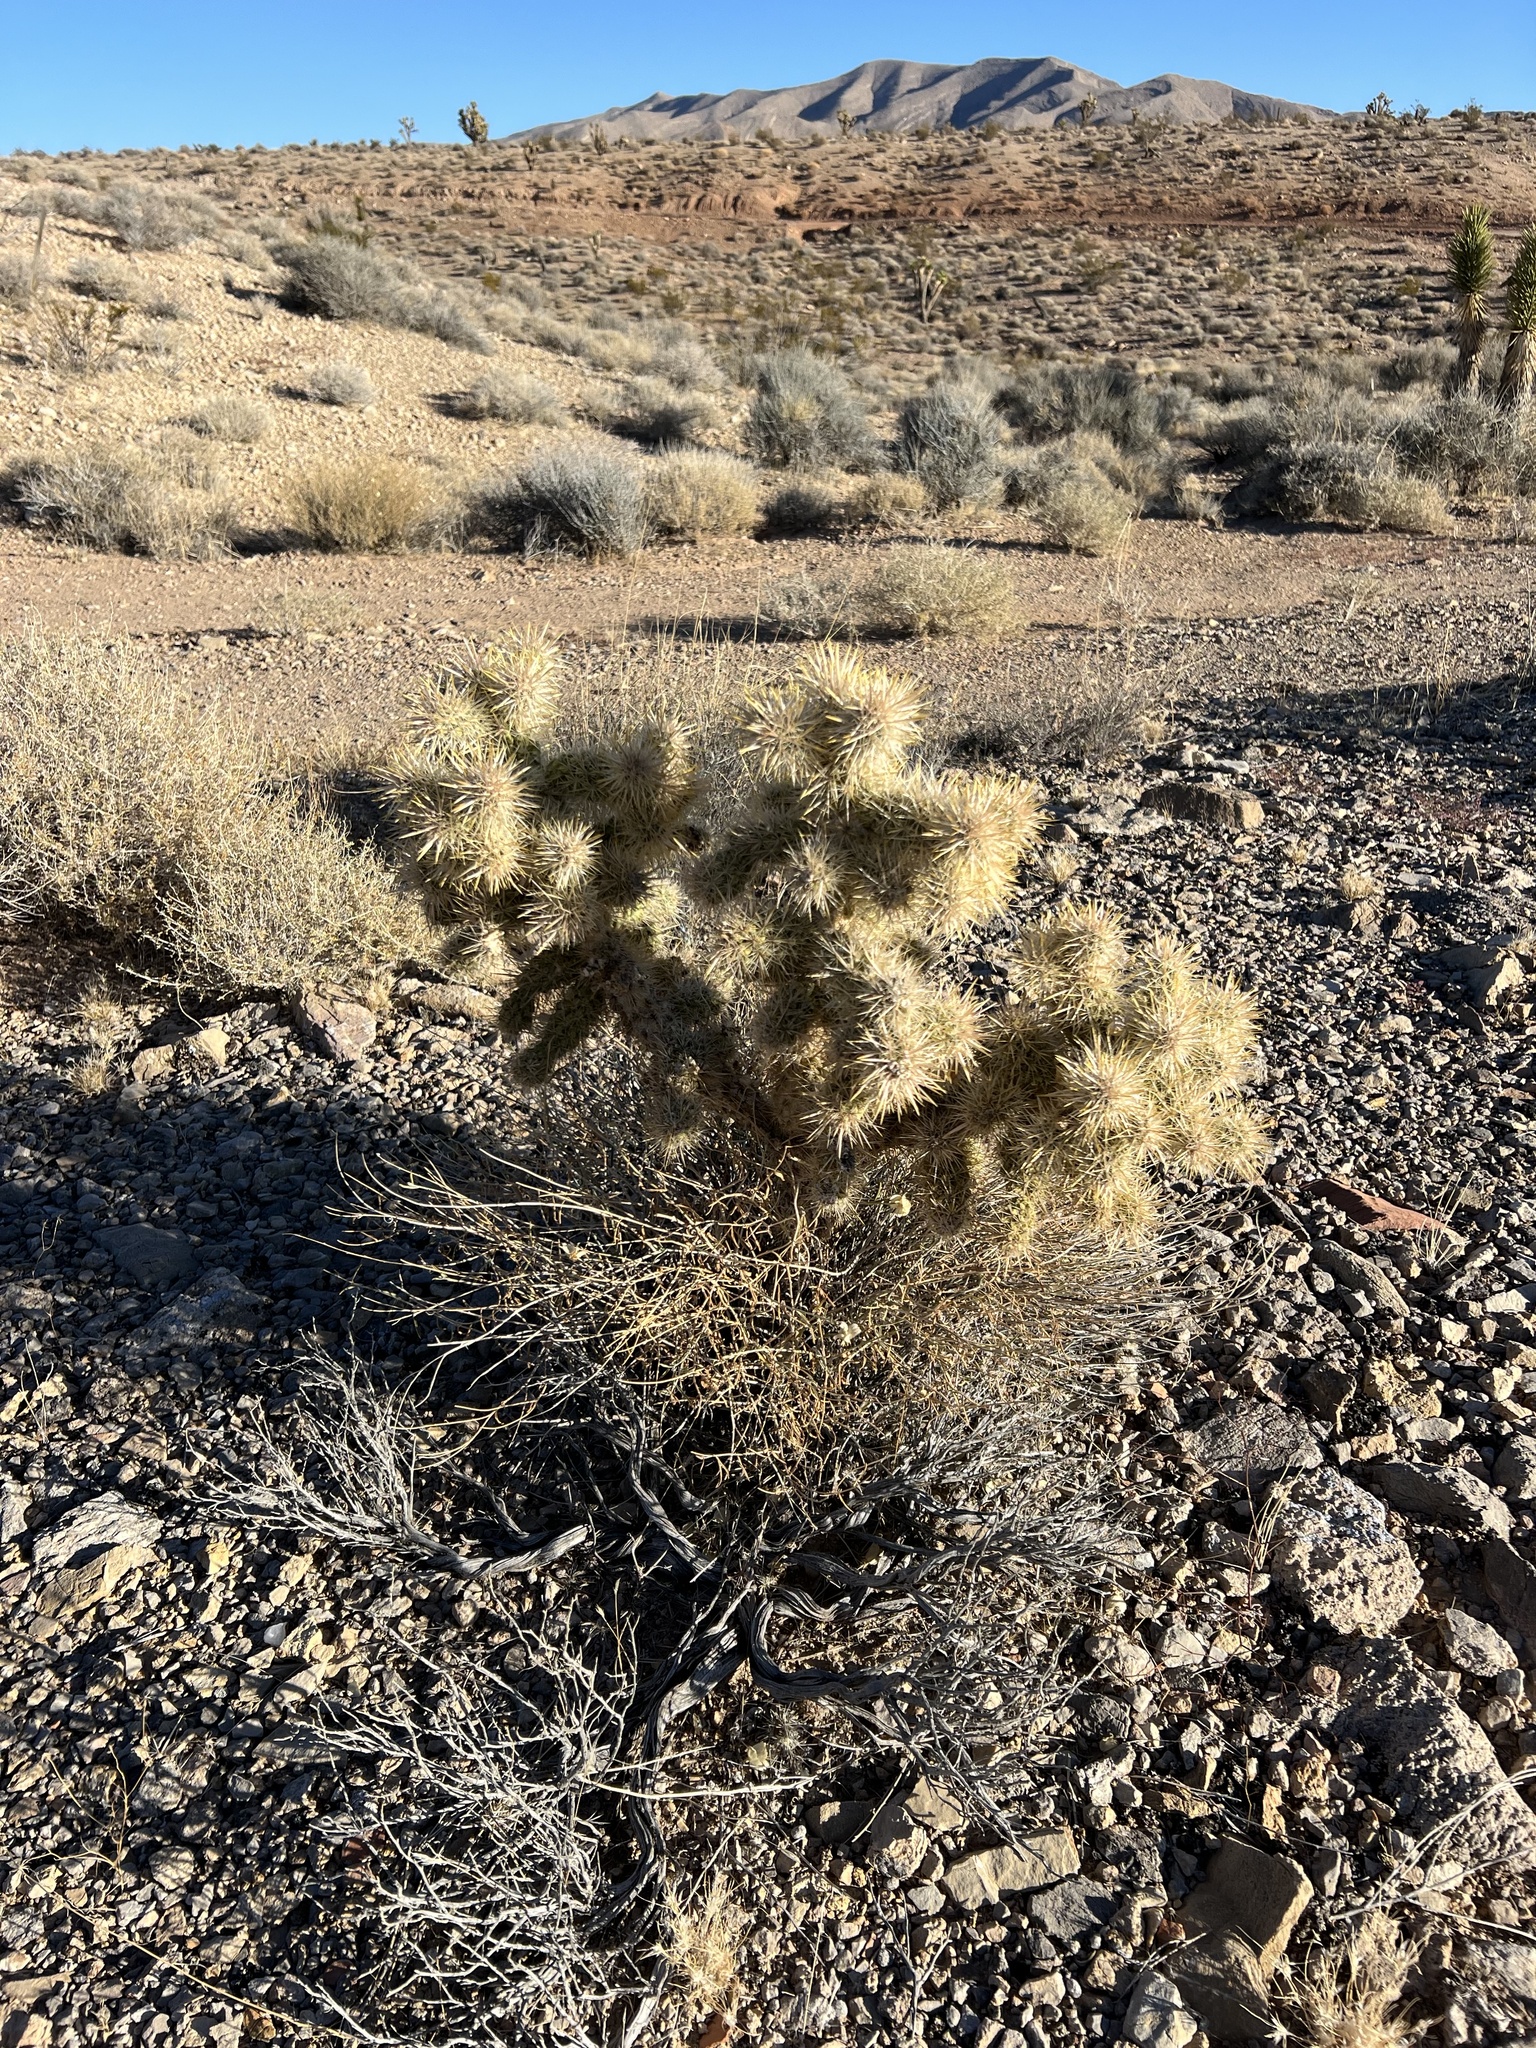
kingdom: Plantae
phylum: Tracheophyta
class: Magnoliopsida
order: Caryophyllales
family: Cactaceae
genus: Cylindropuntia
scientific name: Cylindropuntia echinocarpa
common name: Ground cholla
